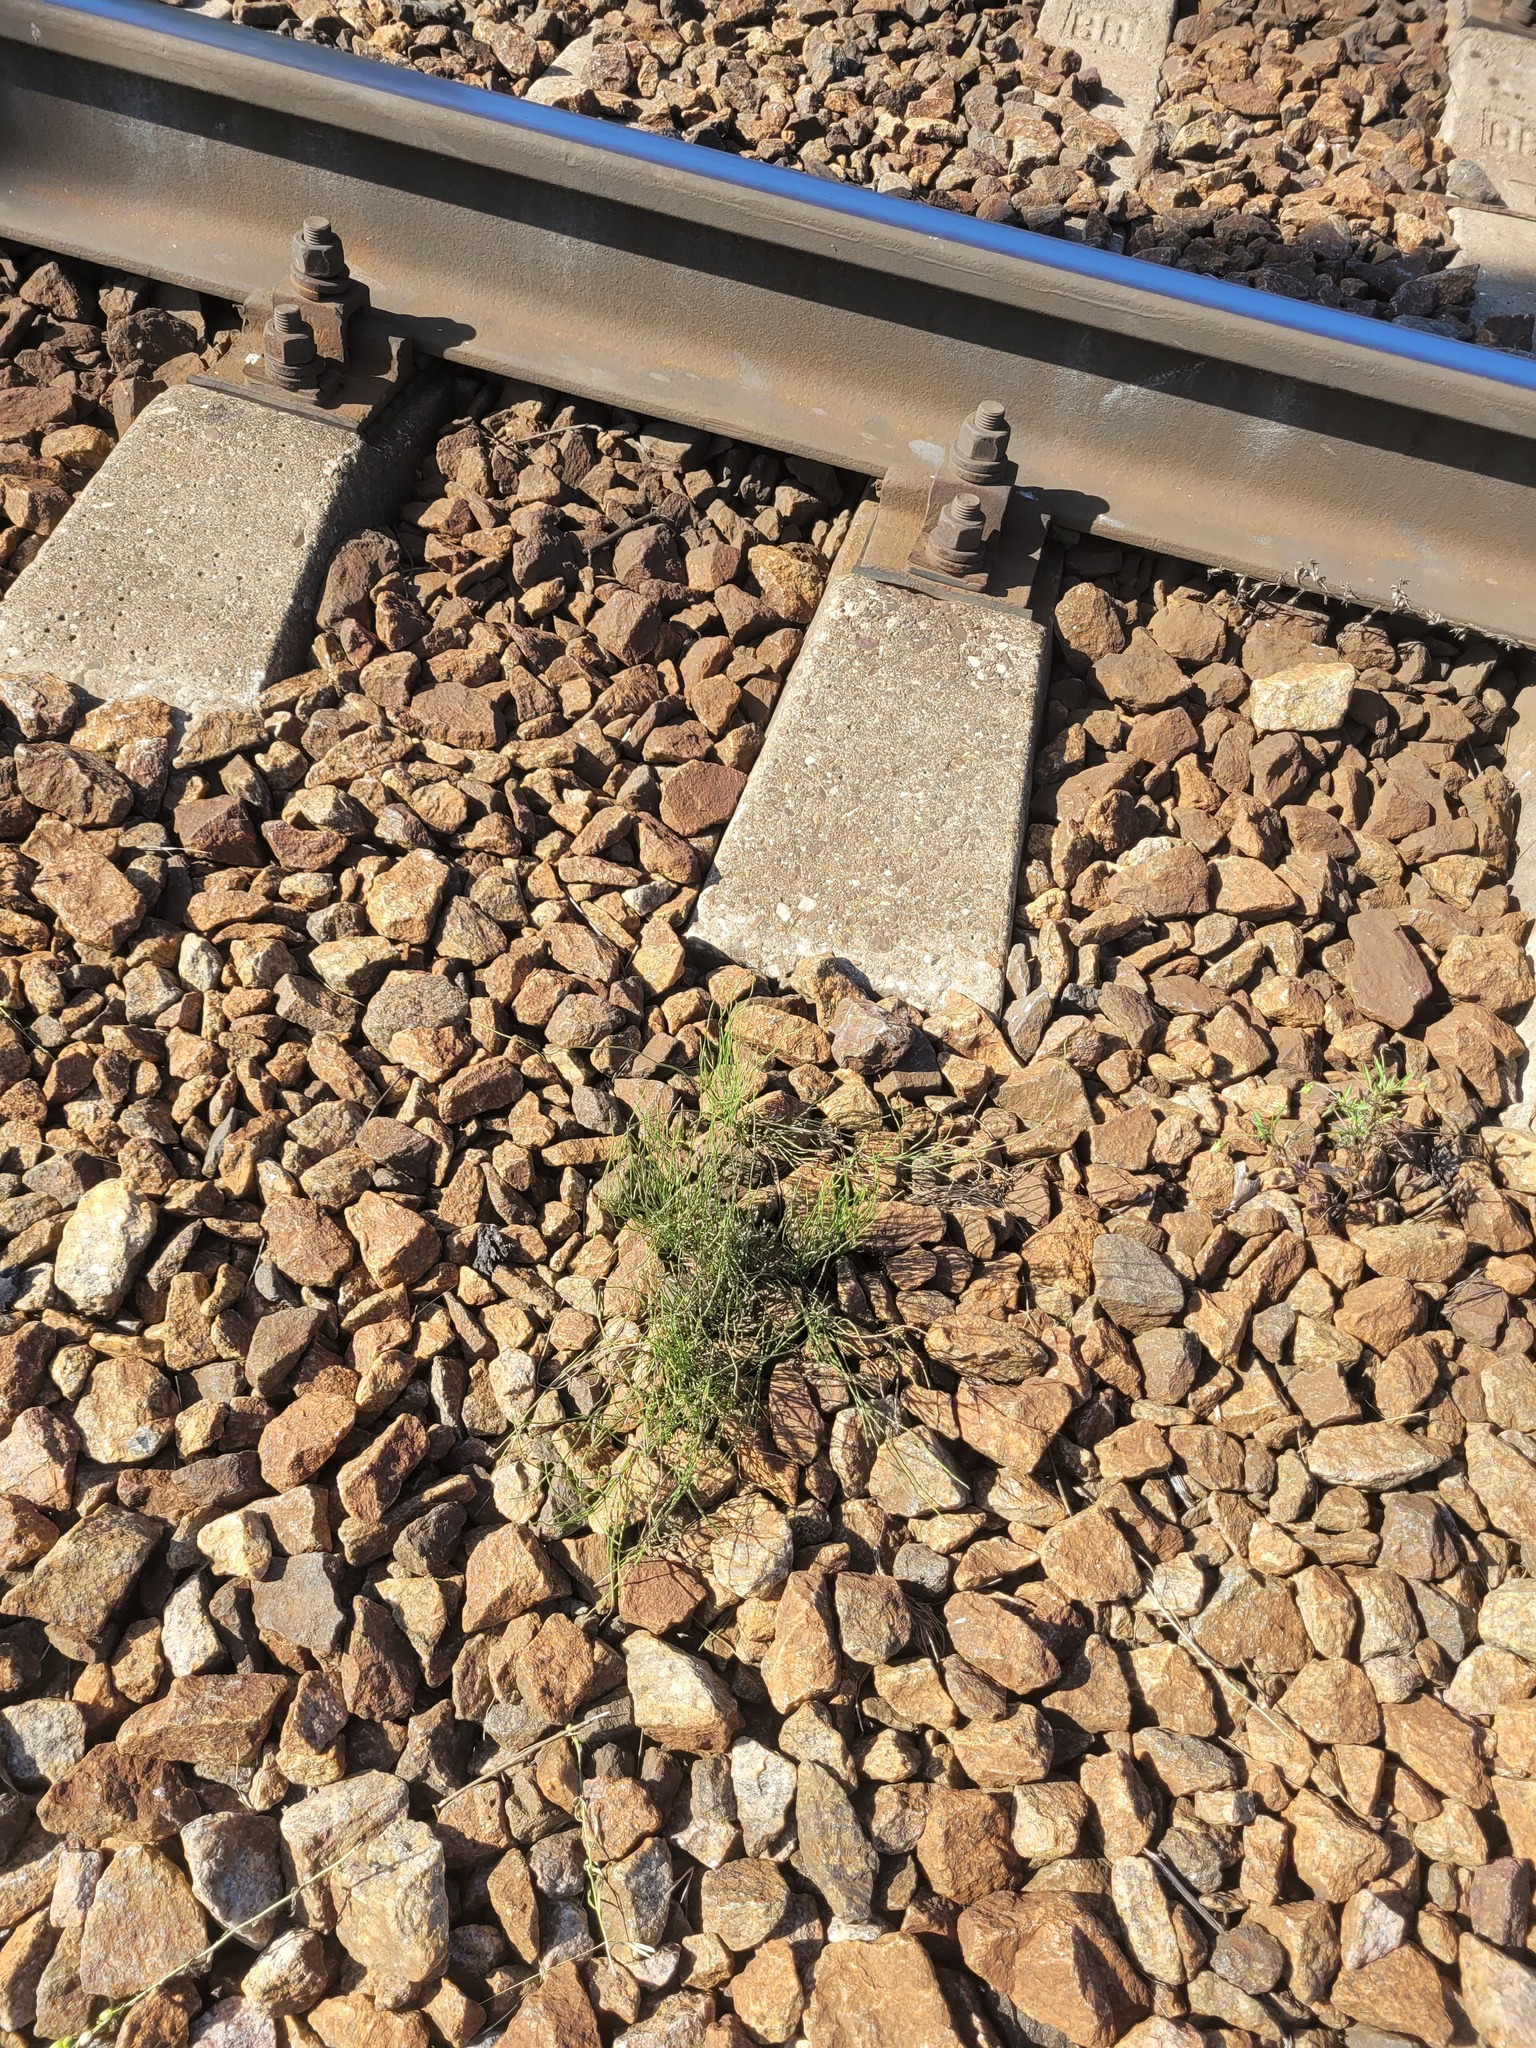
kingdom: Plantae
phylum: Tracheophyta
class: Polypodiopsida
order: Equisetales
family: Equisetaceae
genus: Equisetum
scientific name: Equisetum arvense
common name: Field horsetail
